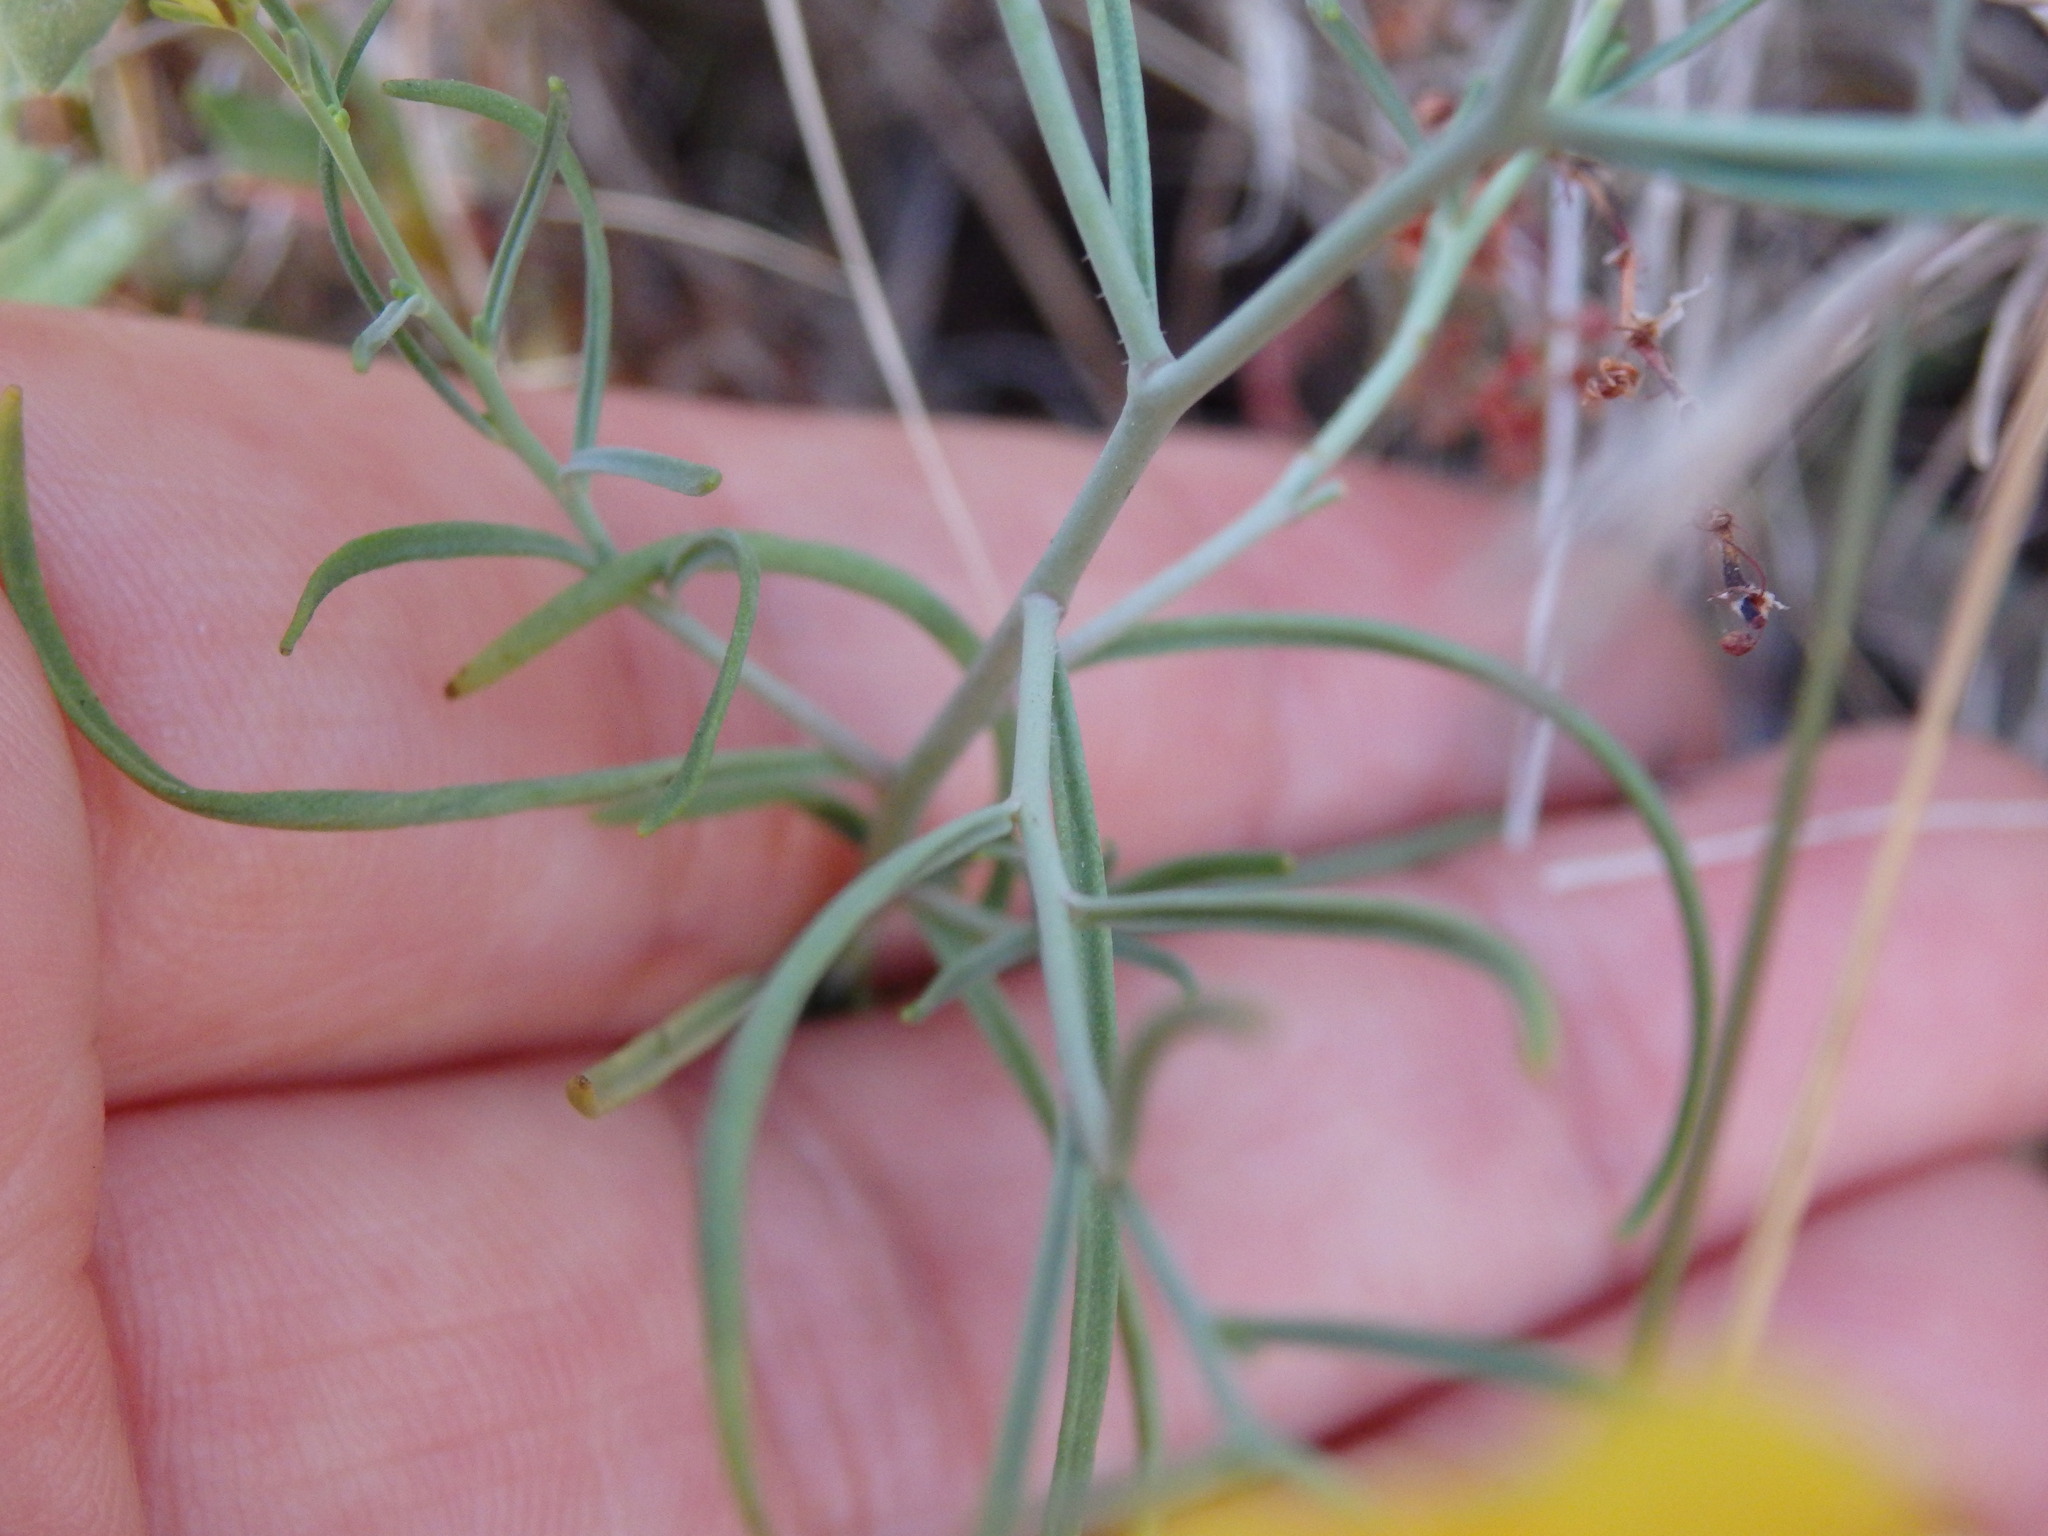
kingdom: Plantae
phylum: Tracheophyta
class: Magnoliopsida
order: Lamiales
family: Plantaginaceae
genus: Linaria
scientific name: Linaria spartea
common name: Ballast toadflax
